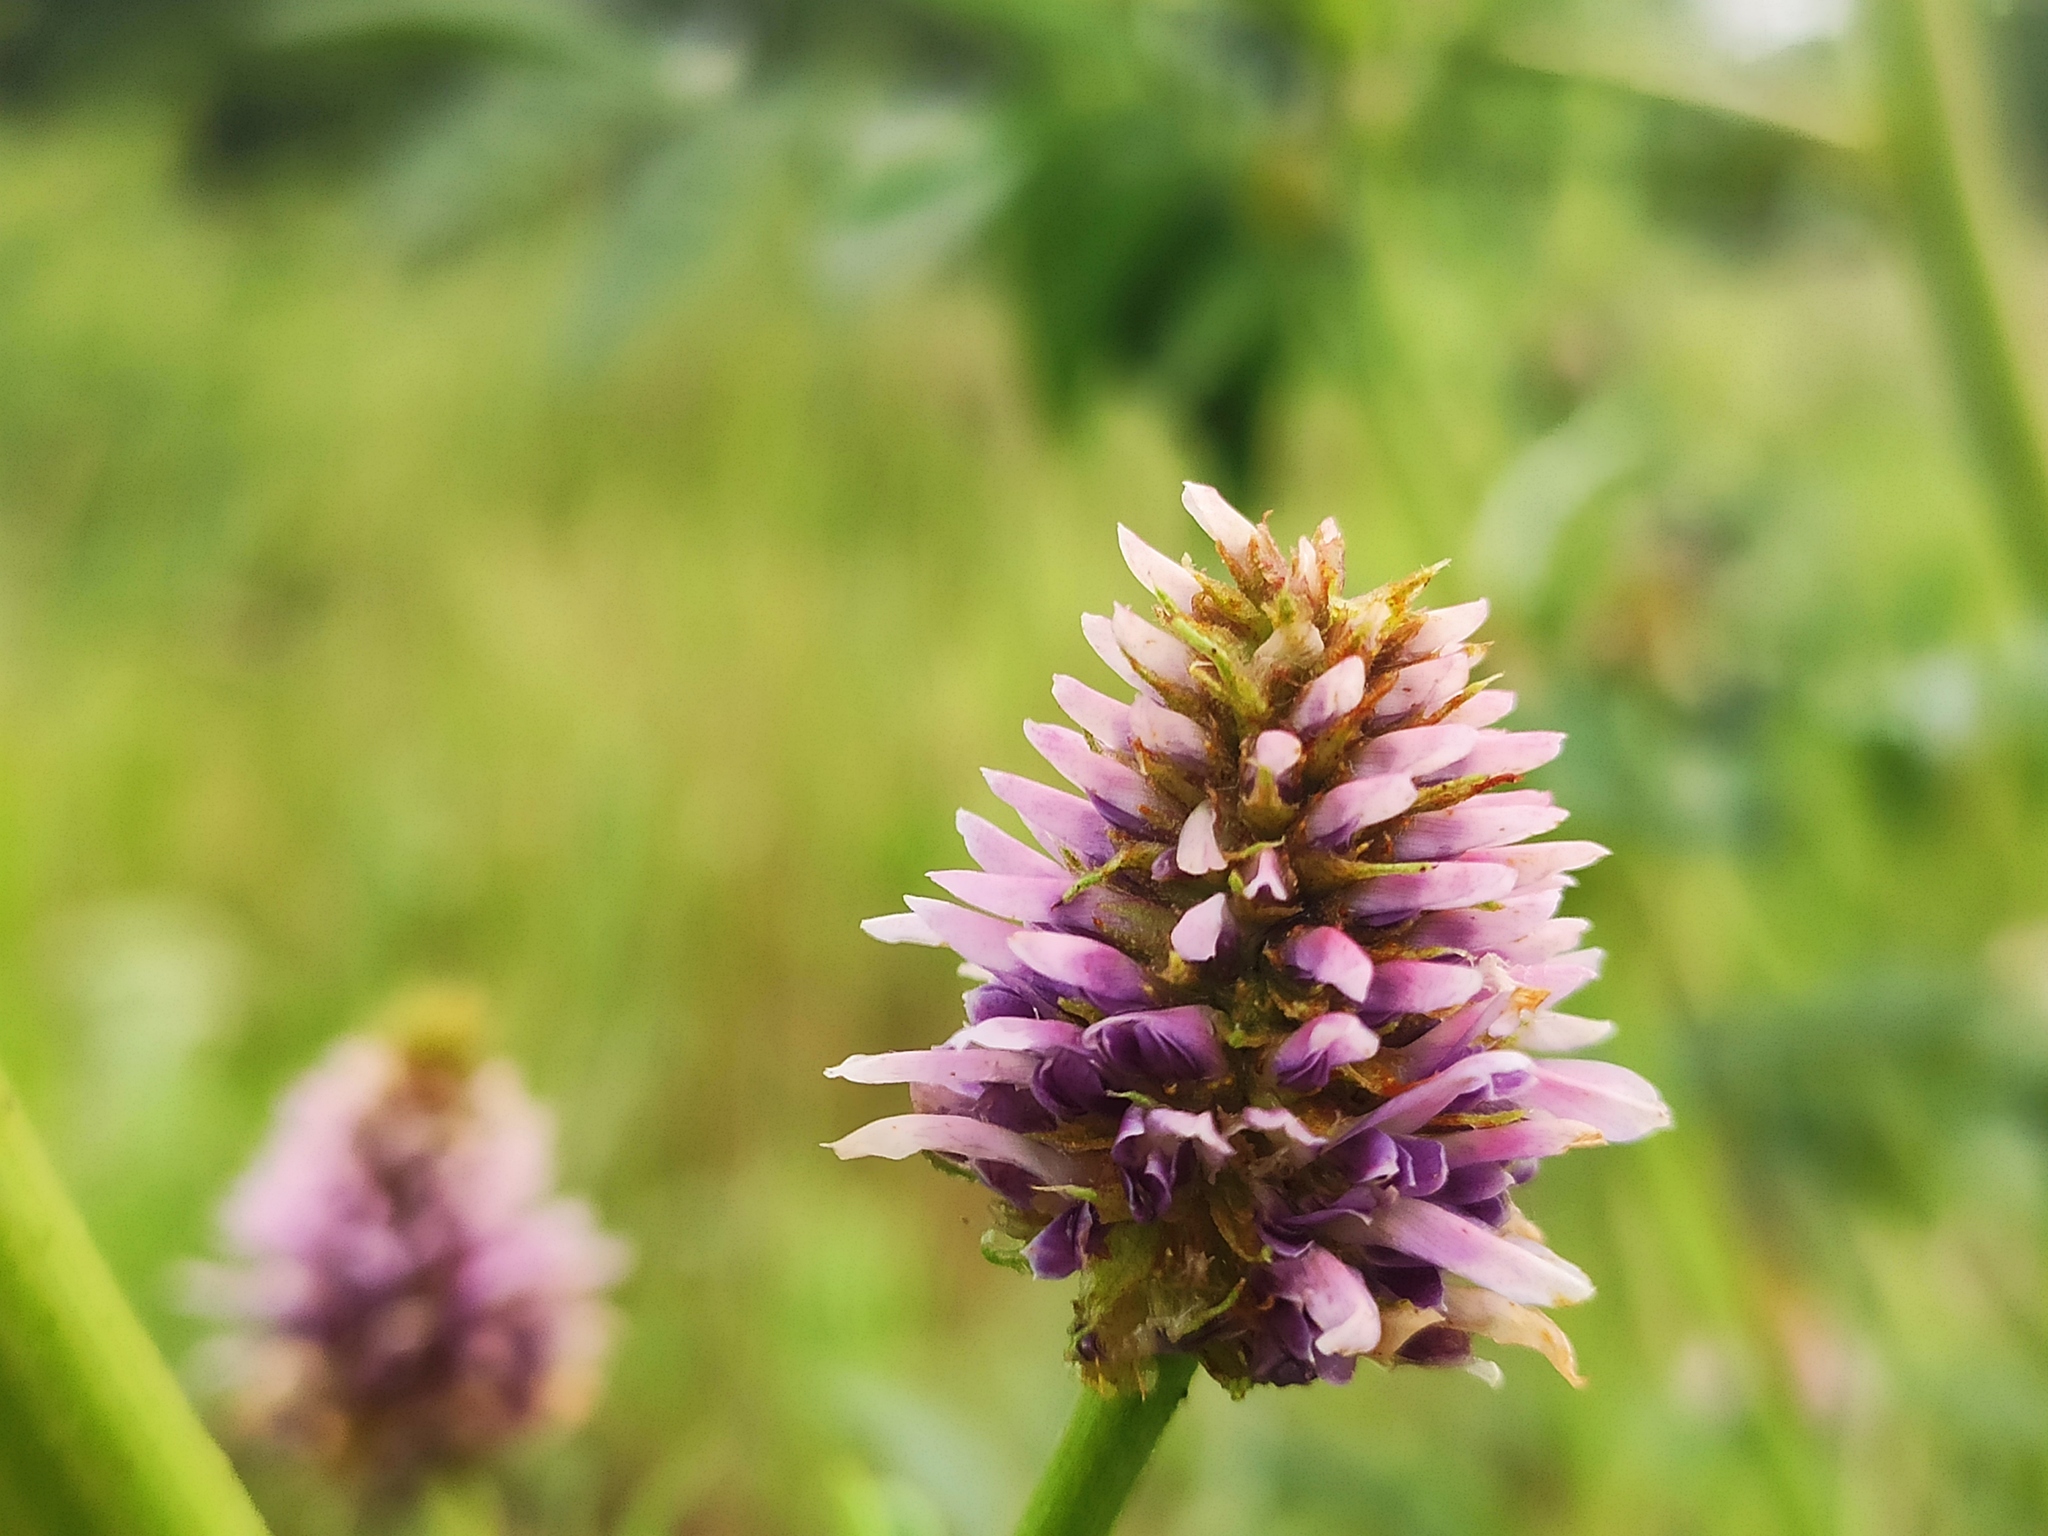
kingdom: Plantae
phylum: Tracheophyta
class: Magnoliopsida
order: Fabales
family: Fabaceae
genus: Glycyrrhiza
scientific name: Glycyrrhiza echinata
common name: German liquorice
